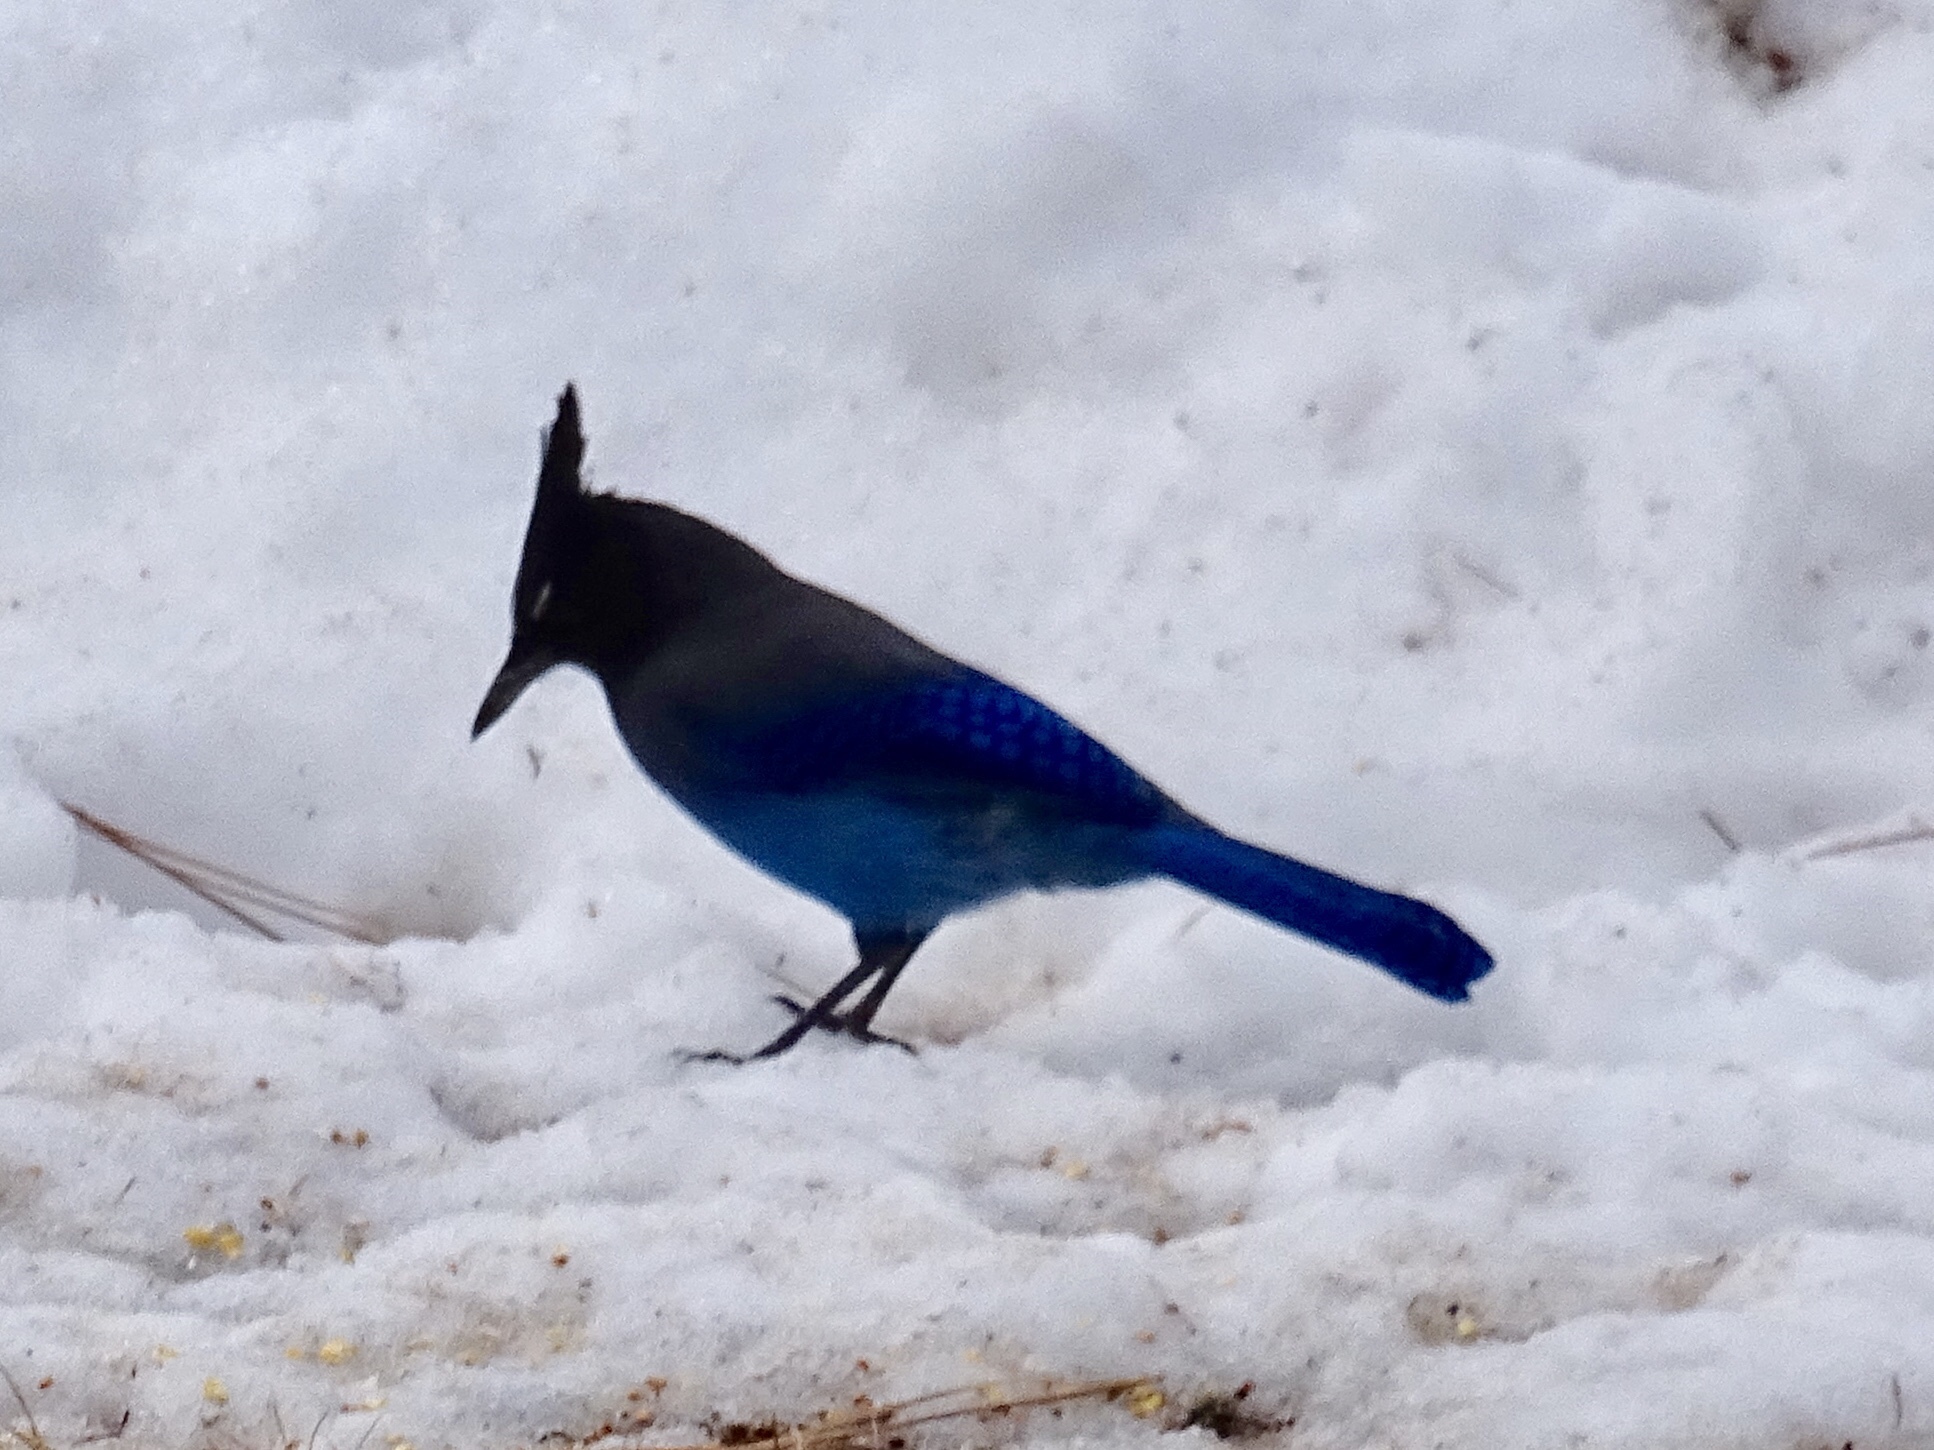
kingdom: Animalia
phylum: Chordata
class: Aves
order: Passeriformes
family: Corvidae
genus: Cyanocitta
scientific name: Cyanocitta stelleri
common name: Steller's jay
